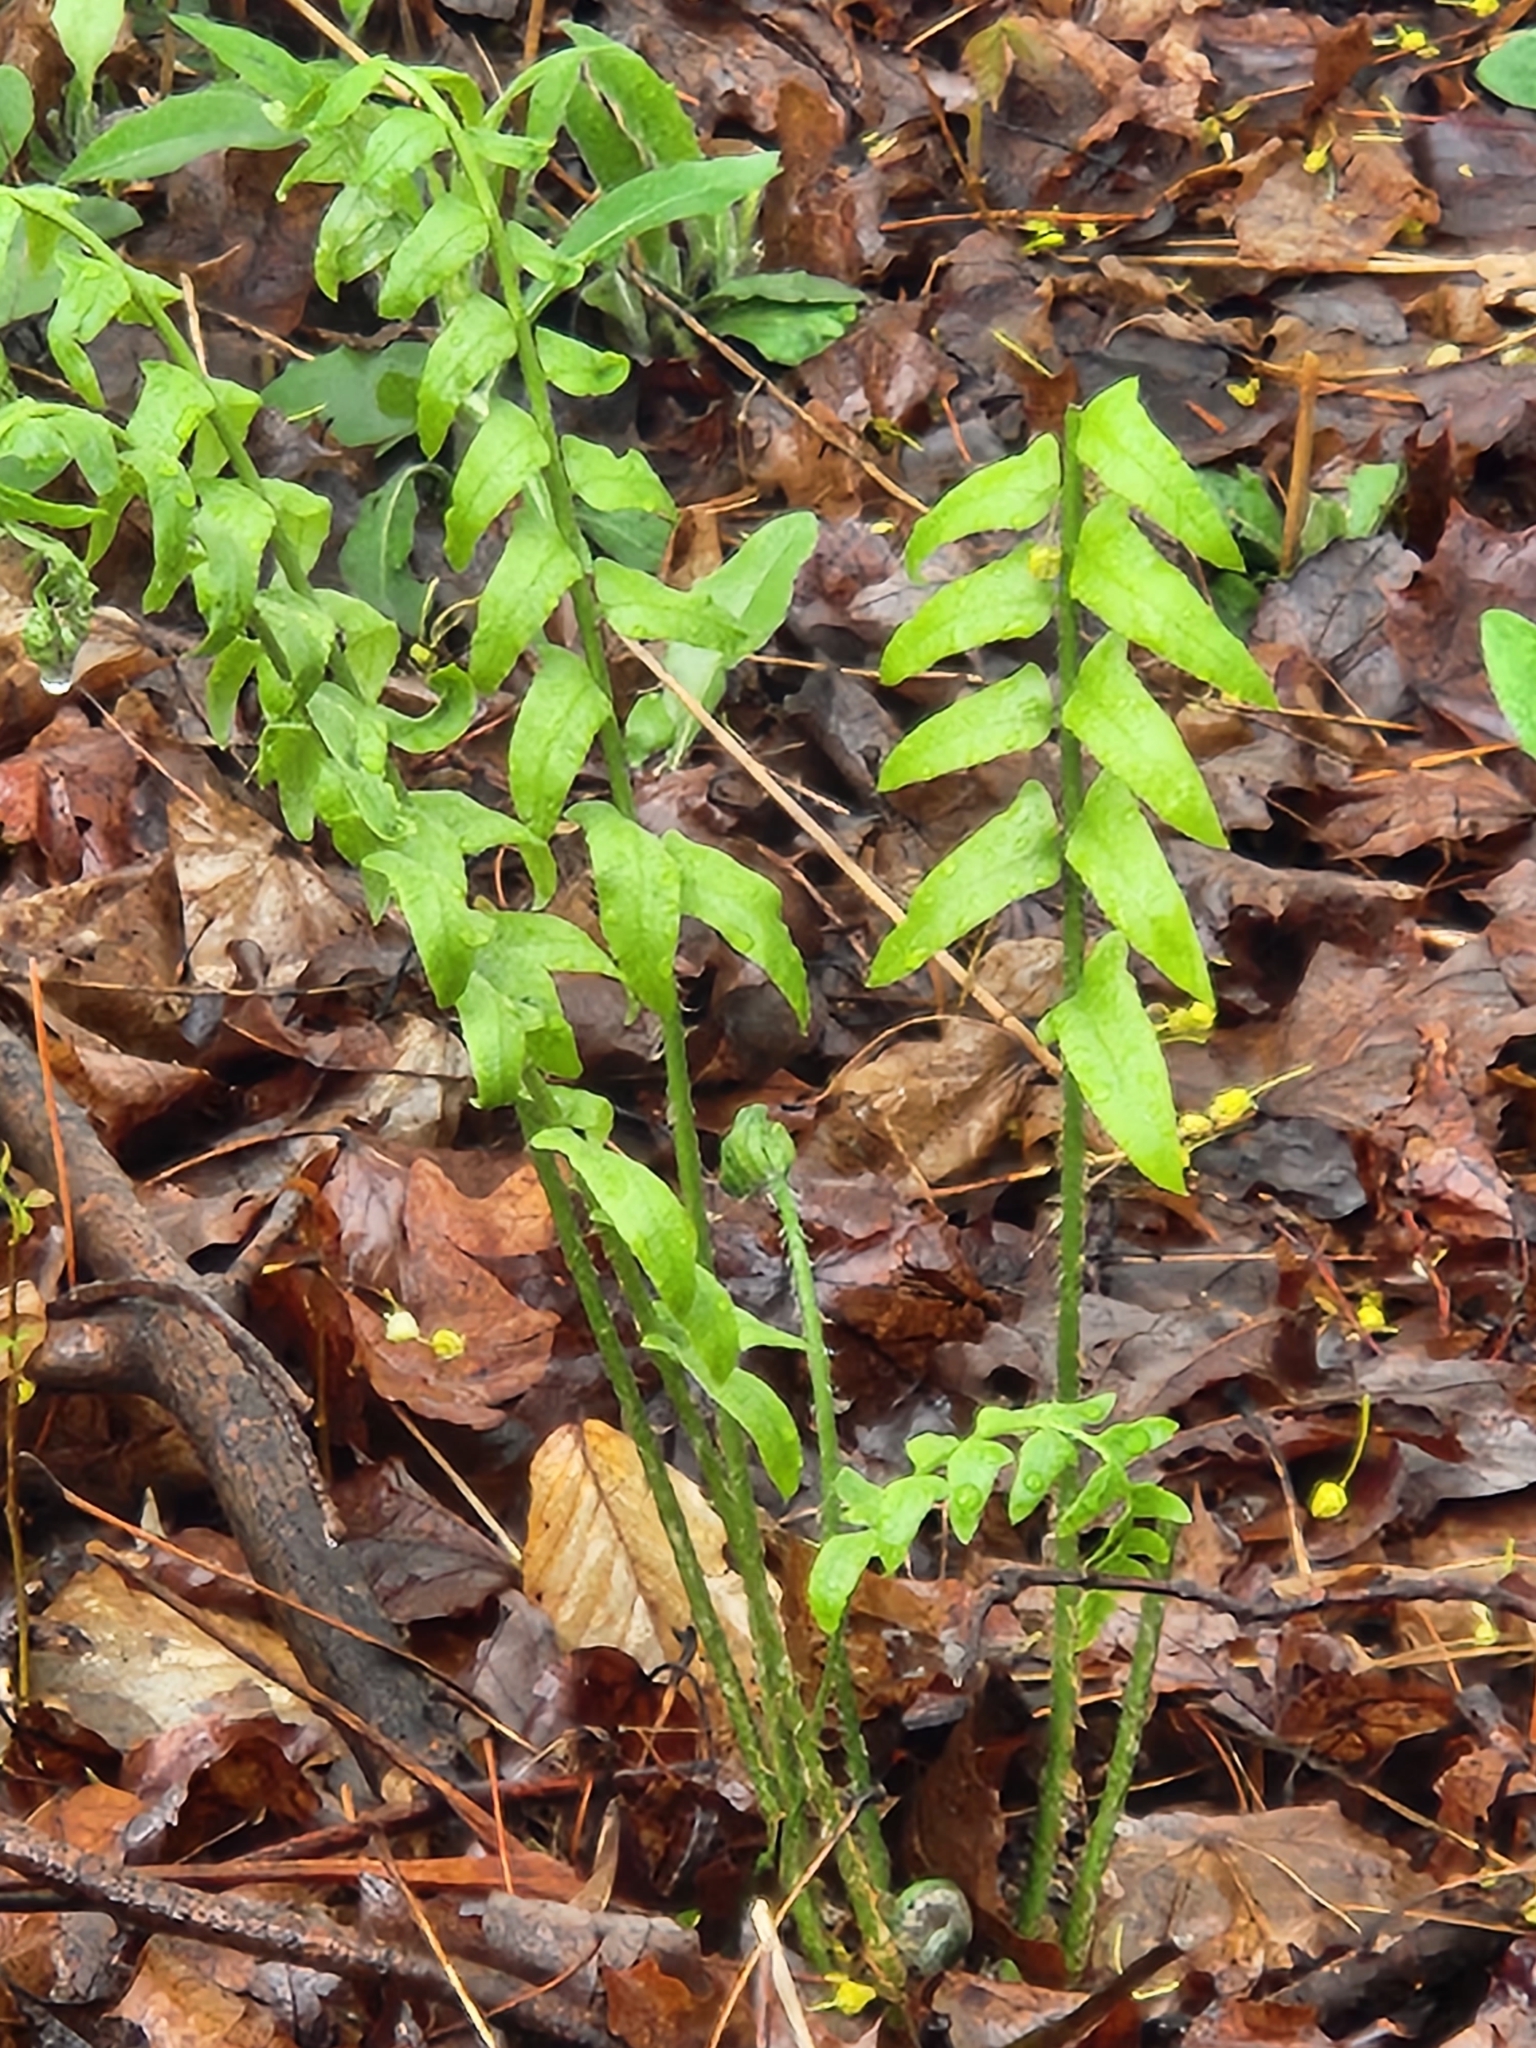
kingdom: Plantae
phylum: Tracheophyta
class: Polypodiopsida
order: Polypodiales
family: Dryopteridaceae
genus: Polystichum
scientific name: Polystichum acrostichoides
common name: Christmas fern
